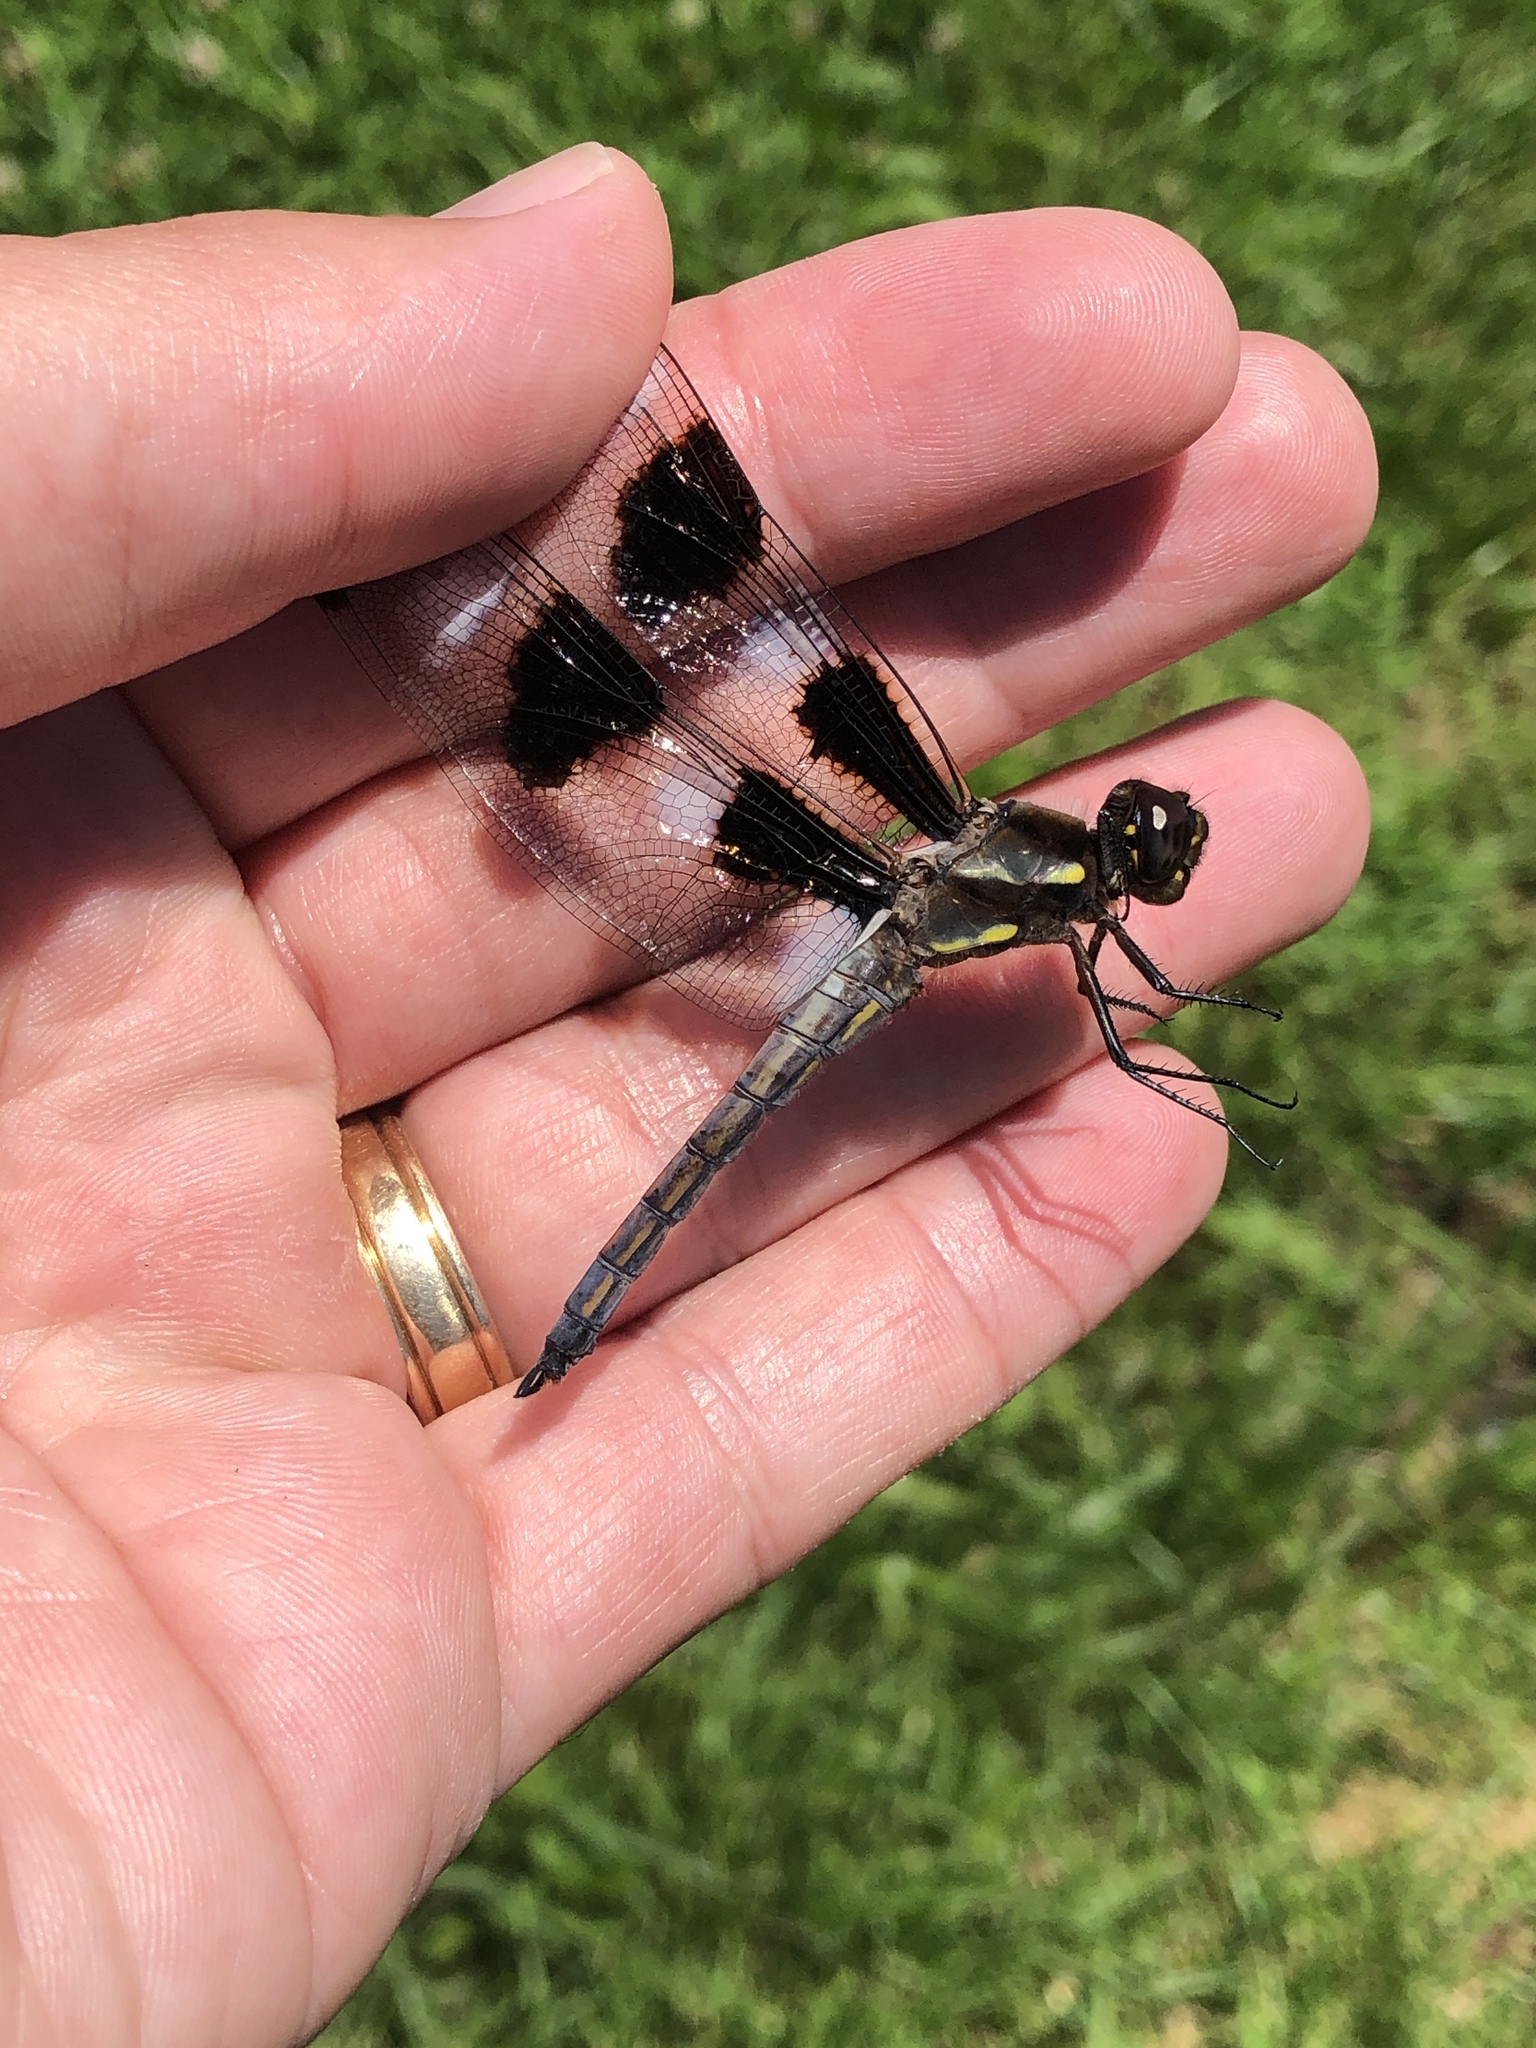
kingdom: Animalia
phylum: Arthropoda
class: Insecta
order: Odonata
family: Libellulidae
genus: Libellula
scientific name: Libellula pulchella
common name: Twelve-spotted skimmer
